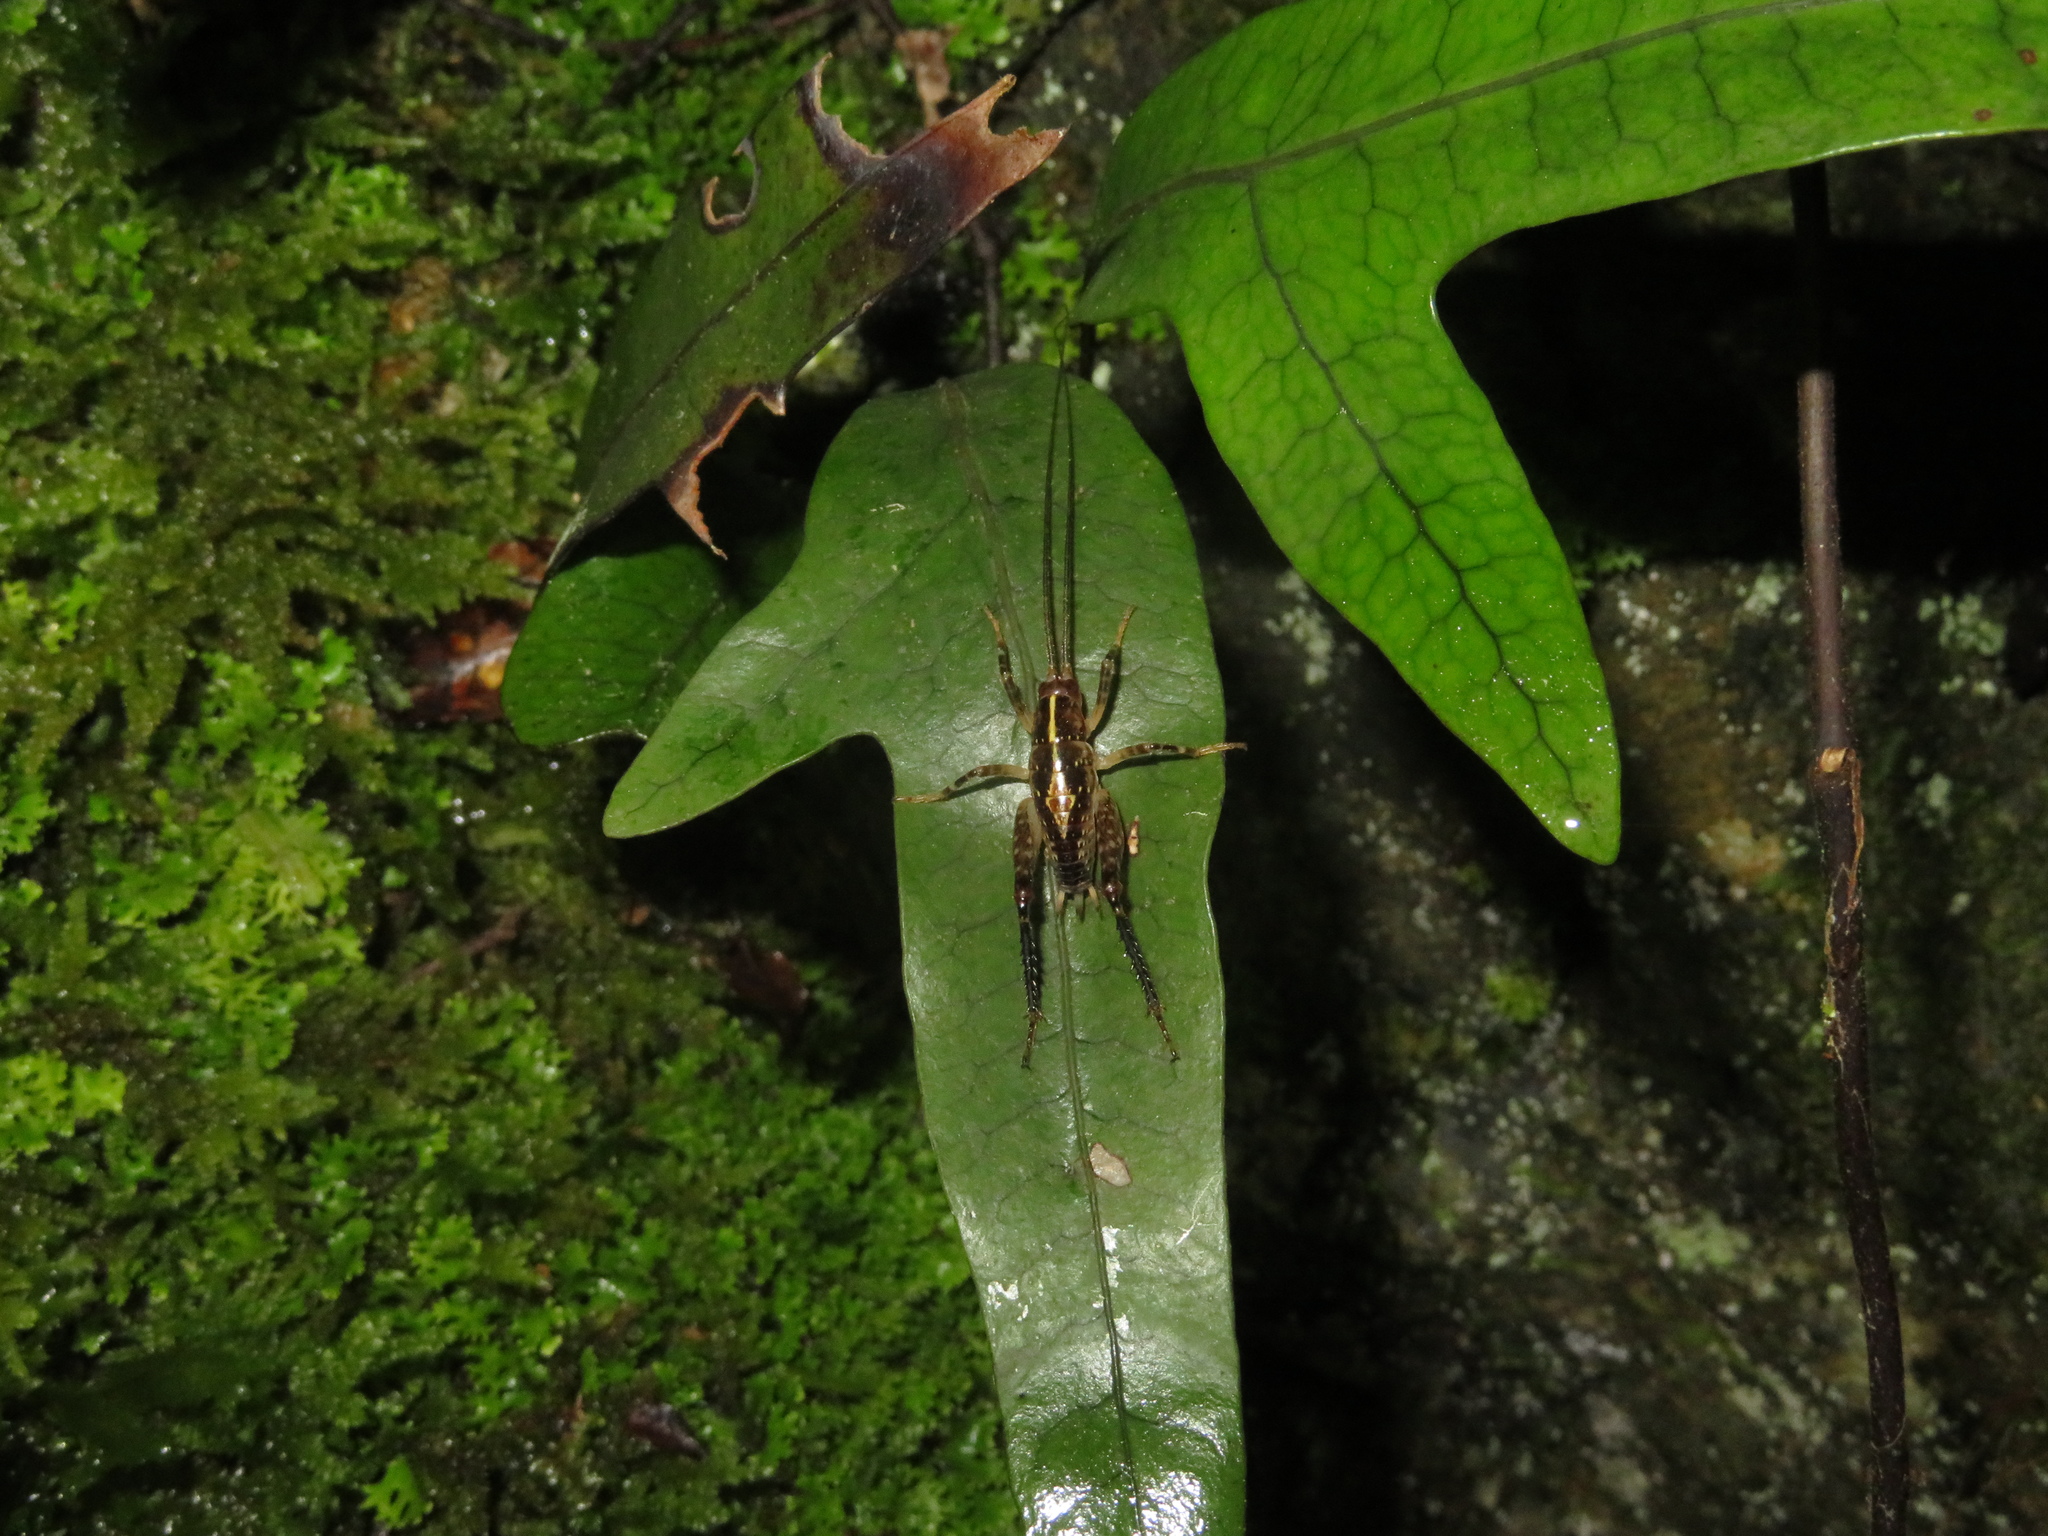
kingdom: Animalia
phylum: Arthropoda
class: Insecta
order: Orthoptera
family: Rhaphidophoridae
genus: Talitropsis
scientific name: Talitropsis sedilloti
